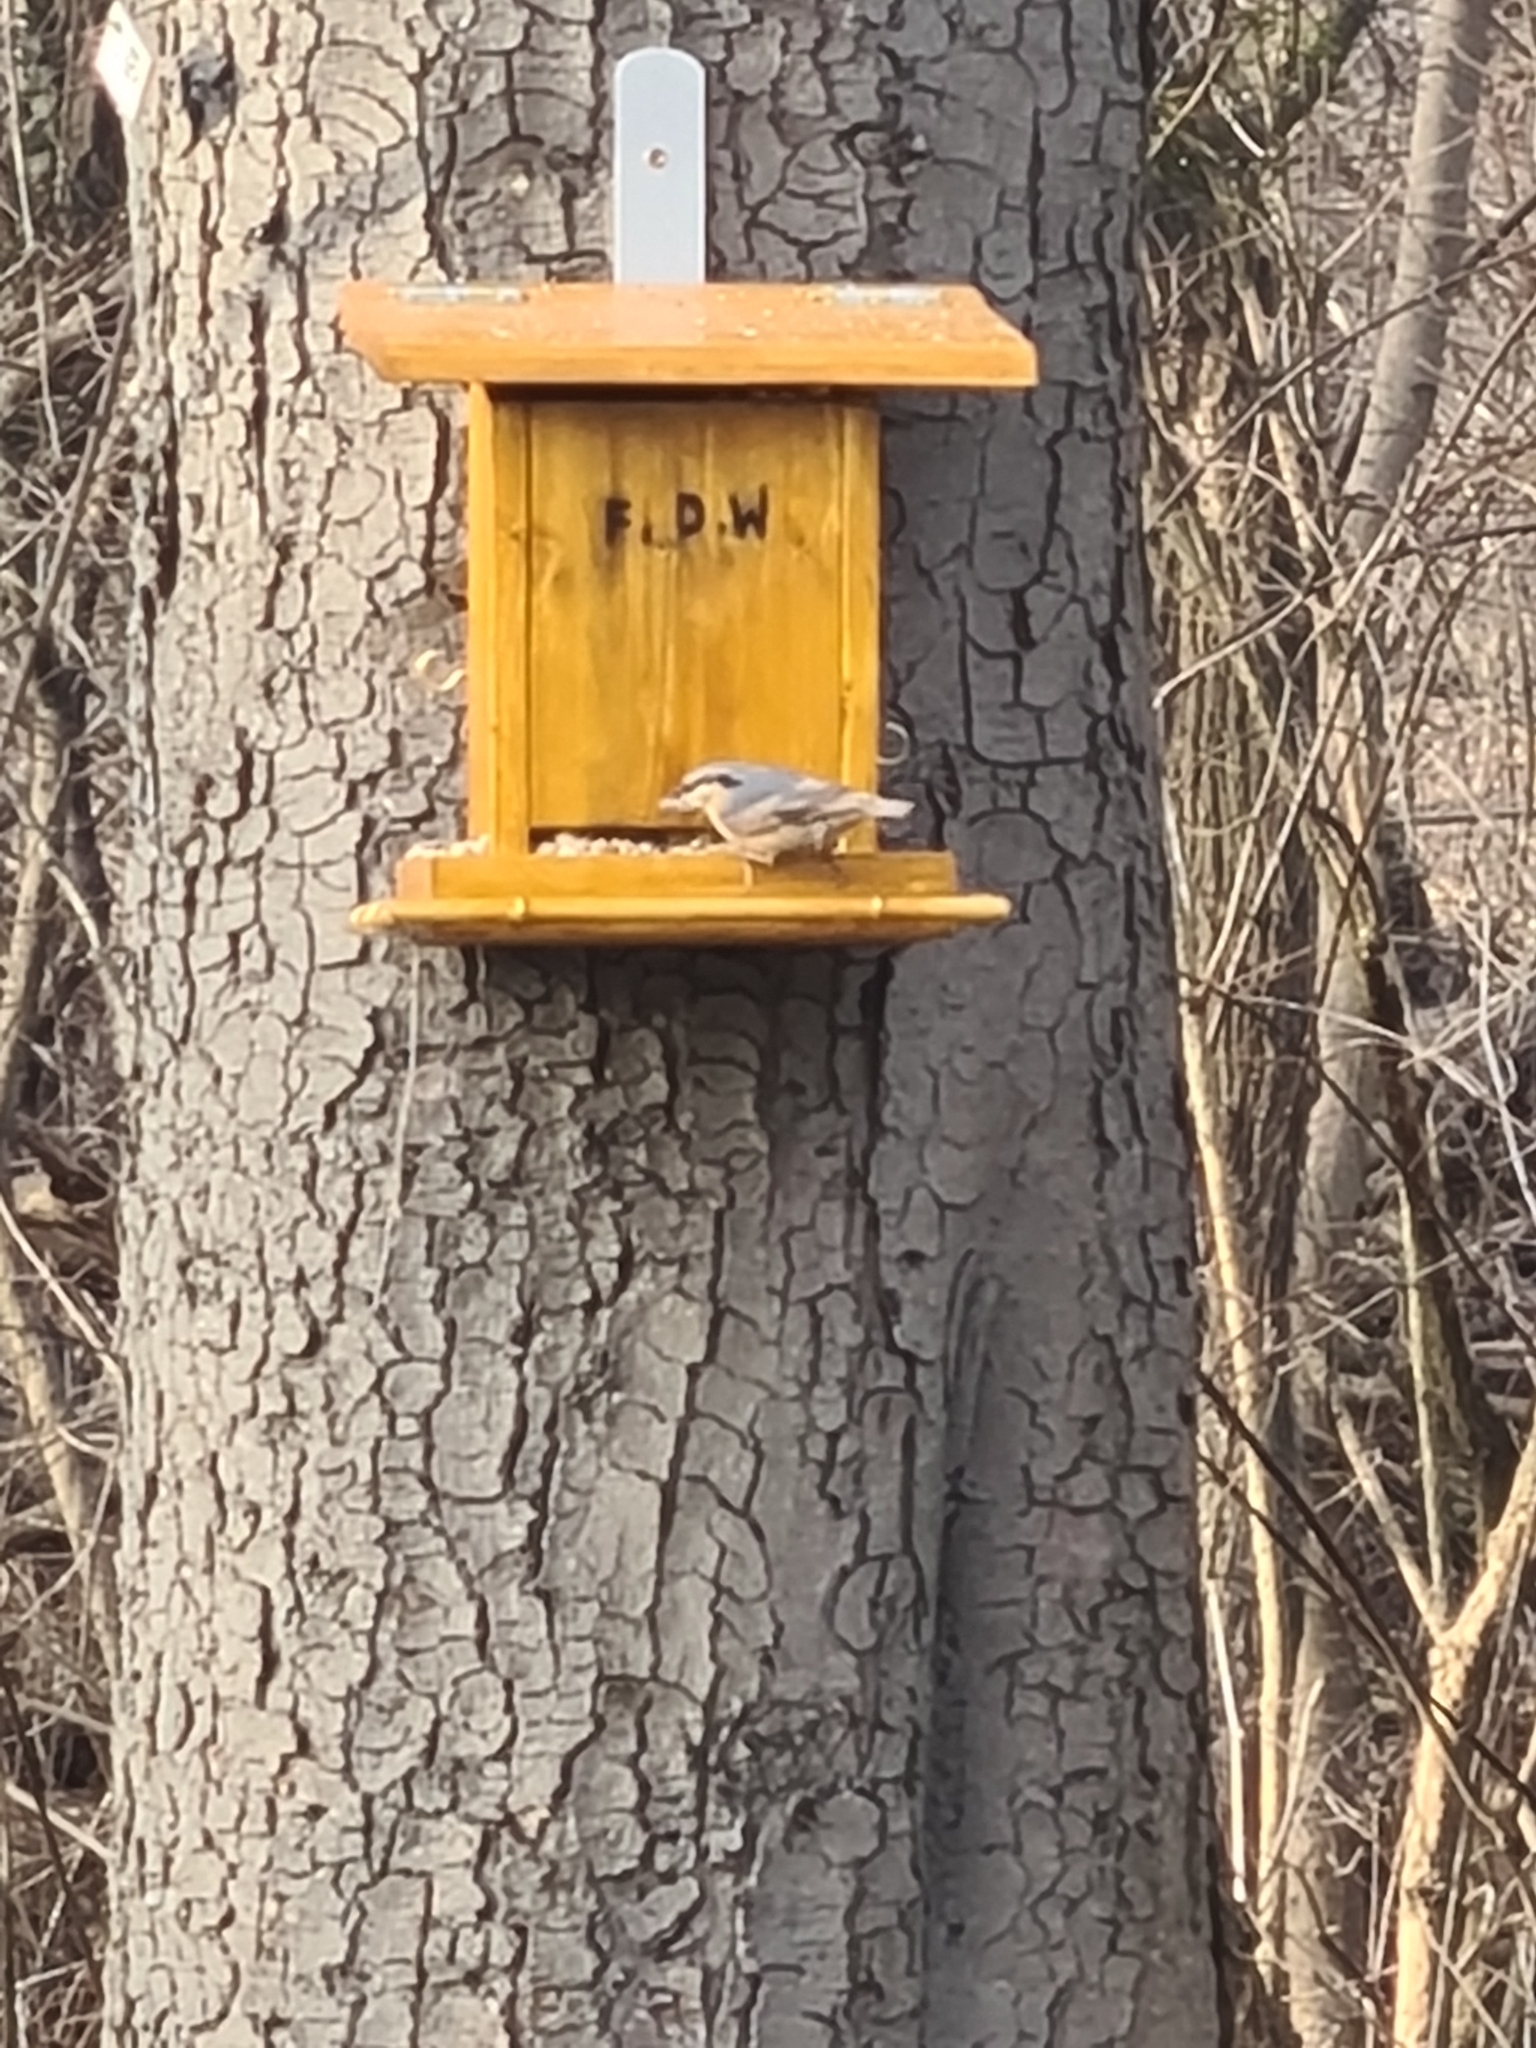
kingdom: Animalia
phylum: Chordata
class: Aves
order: Passeriformes
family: Sittidae
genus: Sitta
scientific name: Sitta europaea
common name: Eurasian nuthatch
